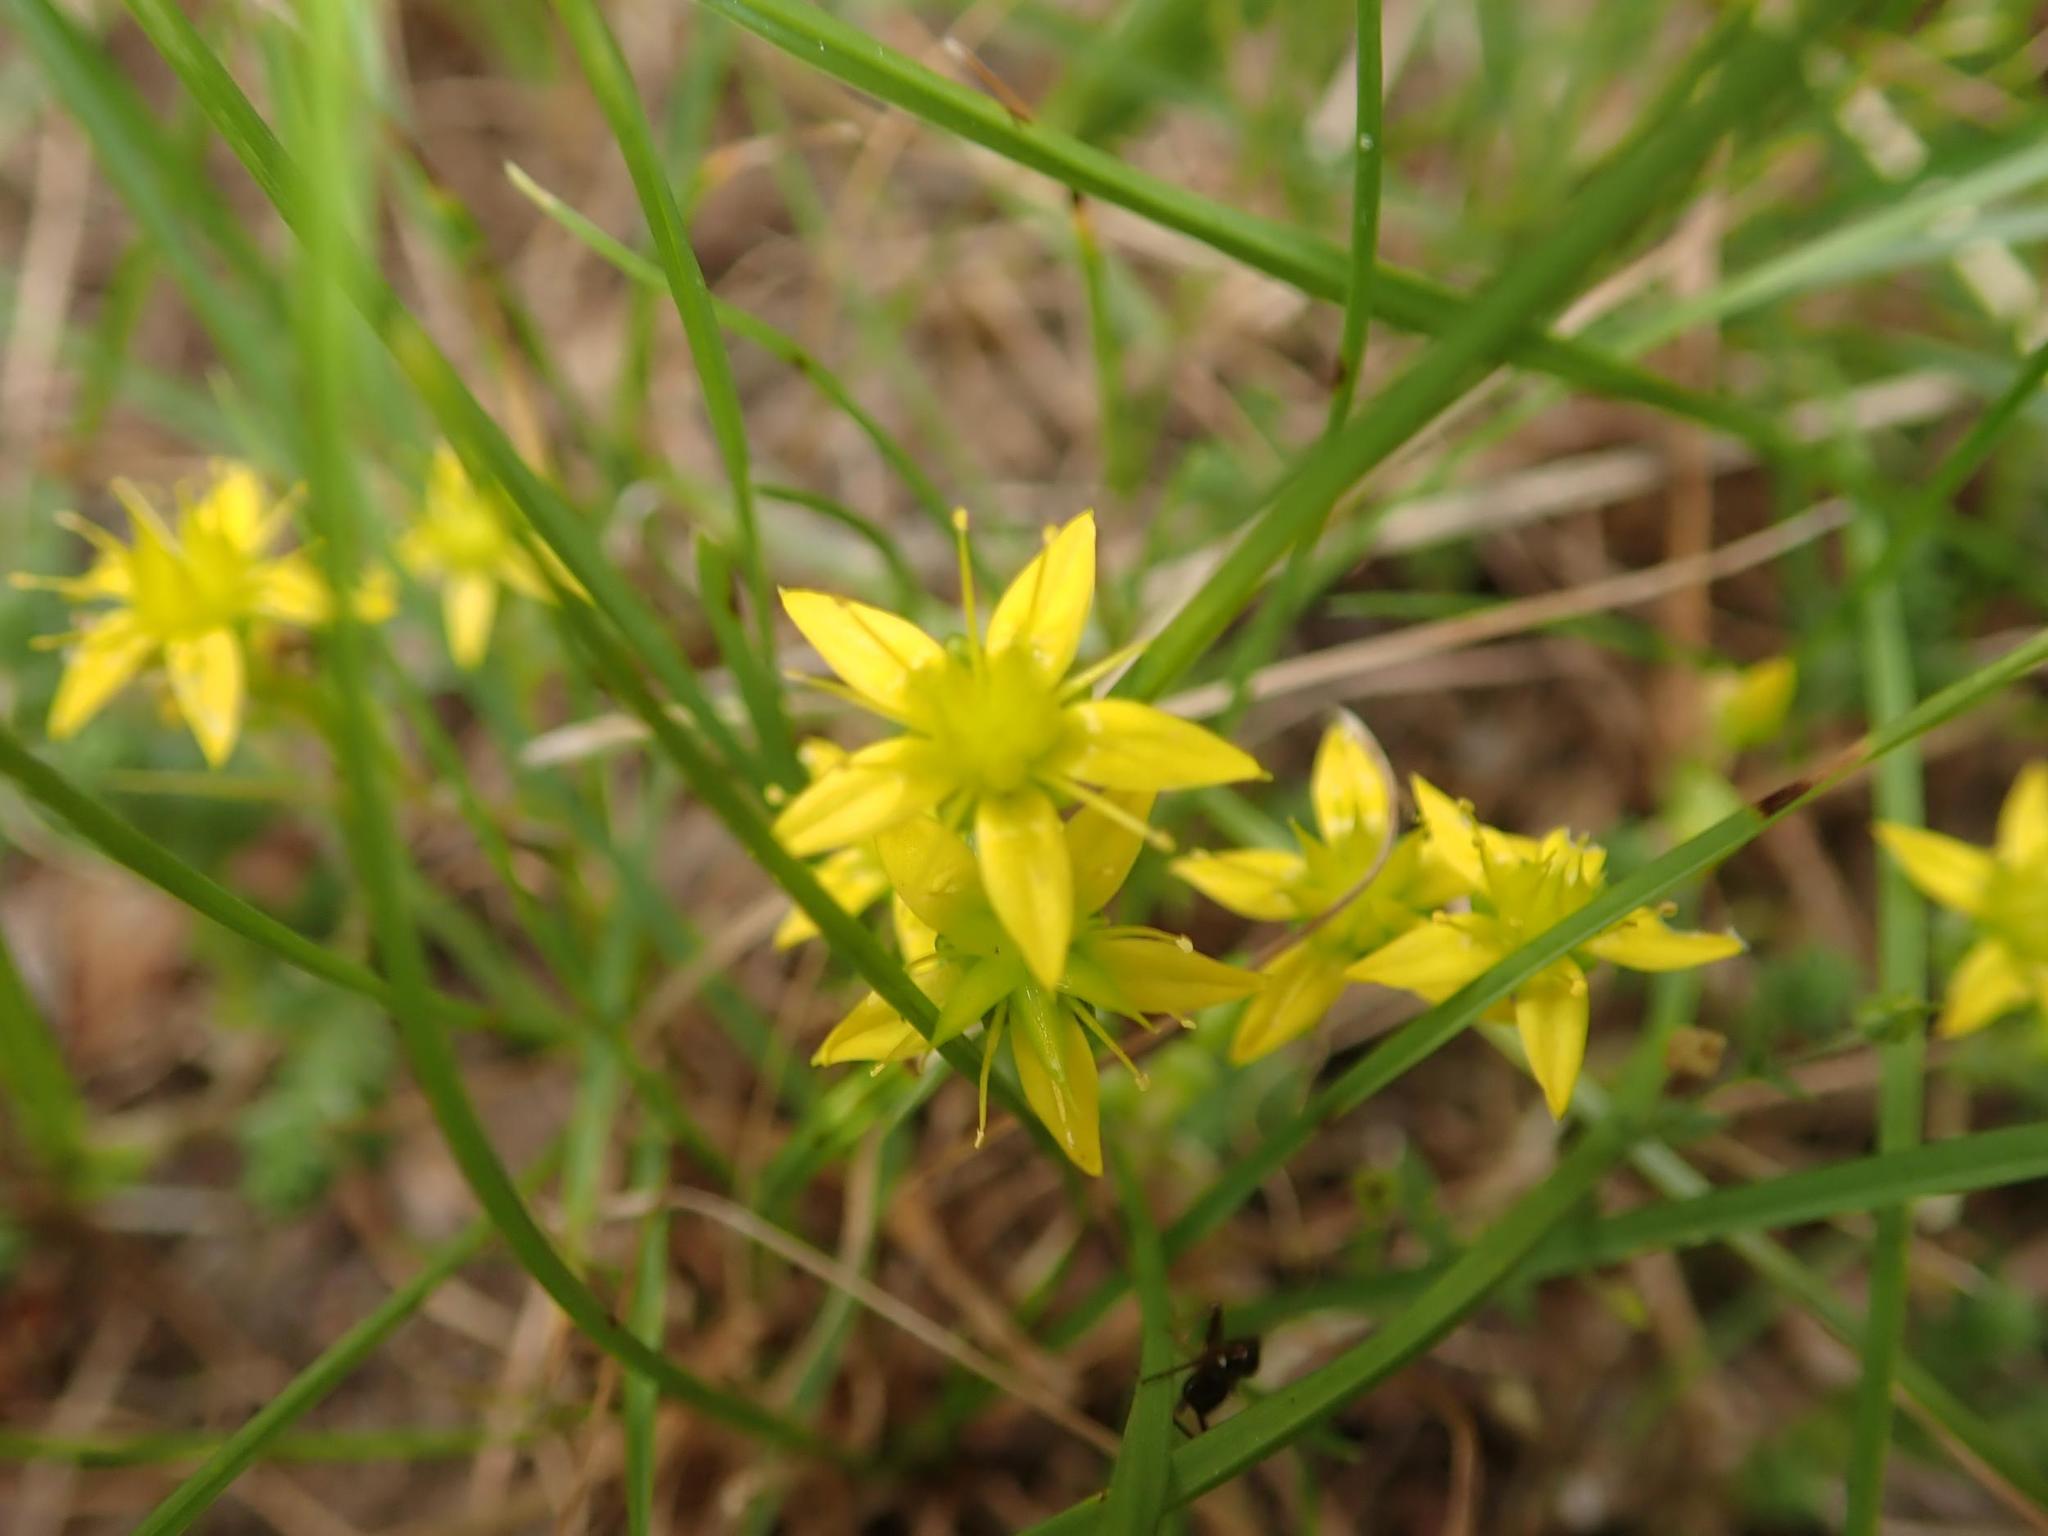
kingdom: Plantae
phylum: Tracheophyta
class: Magnoliopsida
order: Saxifragales
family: Crassulaceae
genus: Sedum
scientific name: Sedum acre
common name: Biting stonecrop
